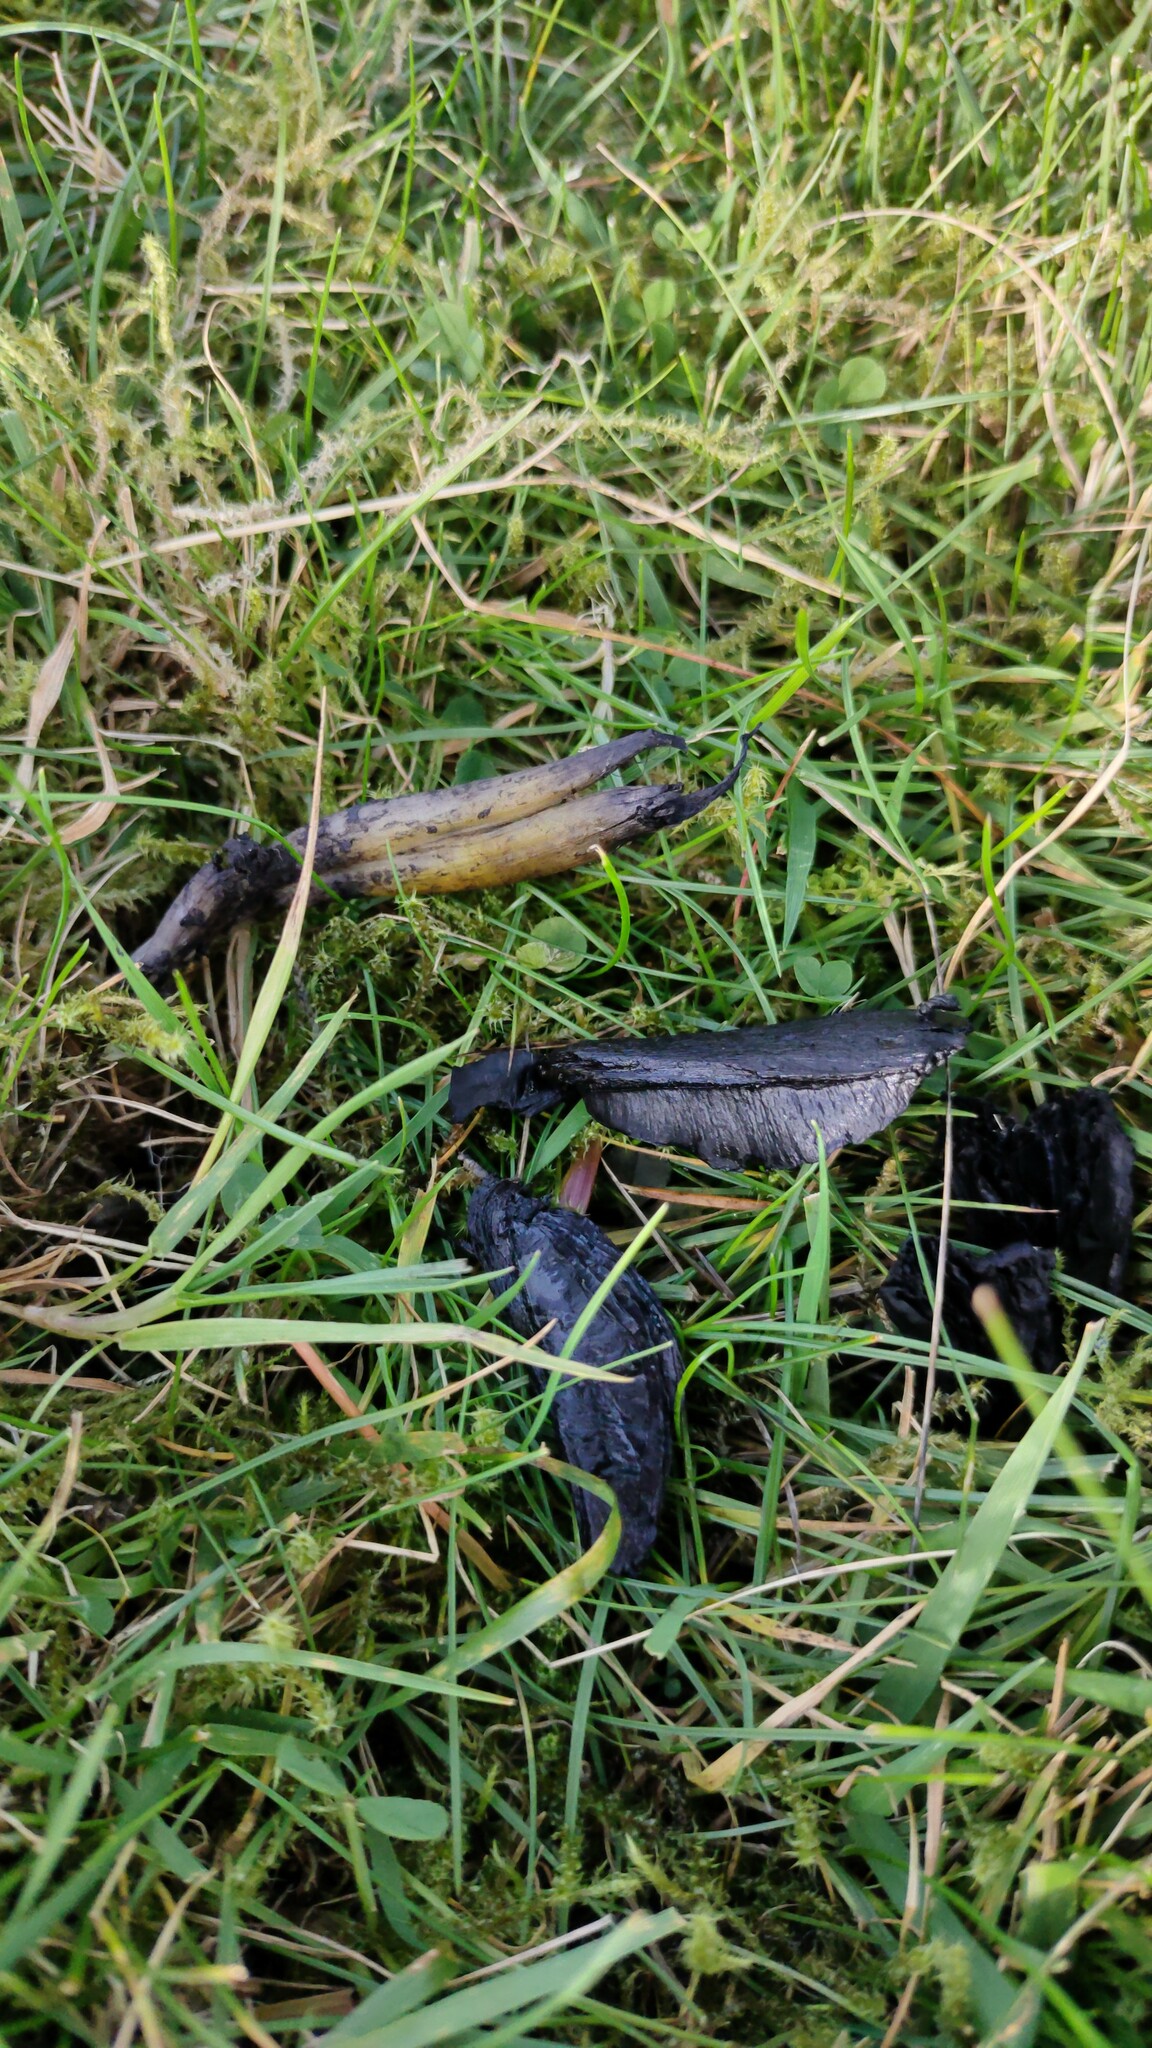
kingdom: Fungi
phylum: Basidiomycota
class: Agaricomycetes
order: Agaricales
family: Hygrophoraceae
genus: Hygrocybe
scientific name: Hygrocybe conica
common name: Blackening wax-cap
